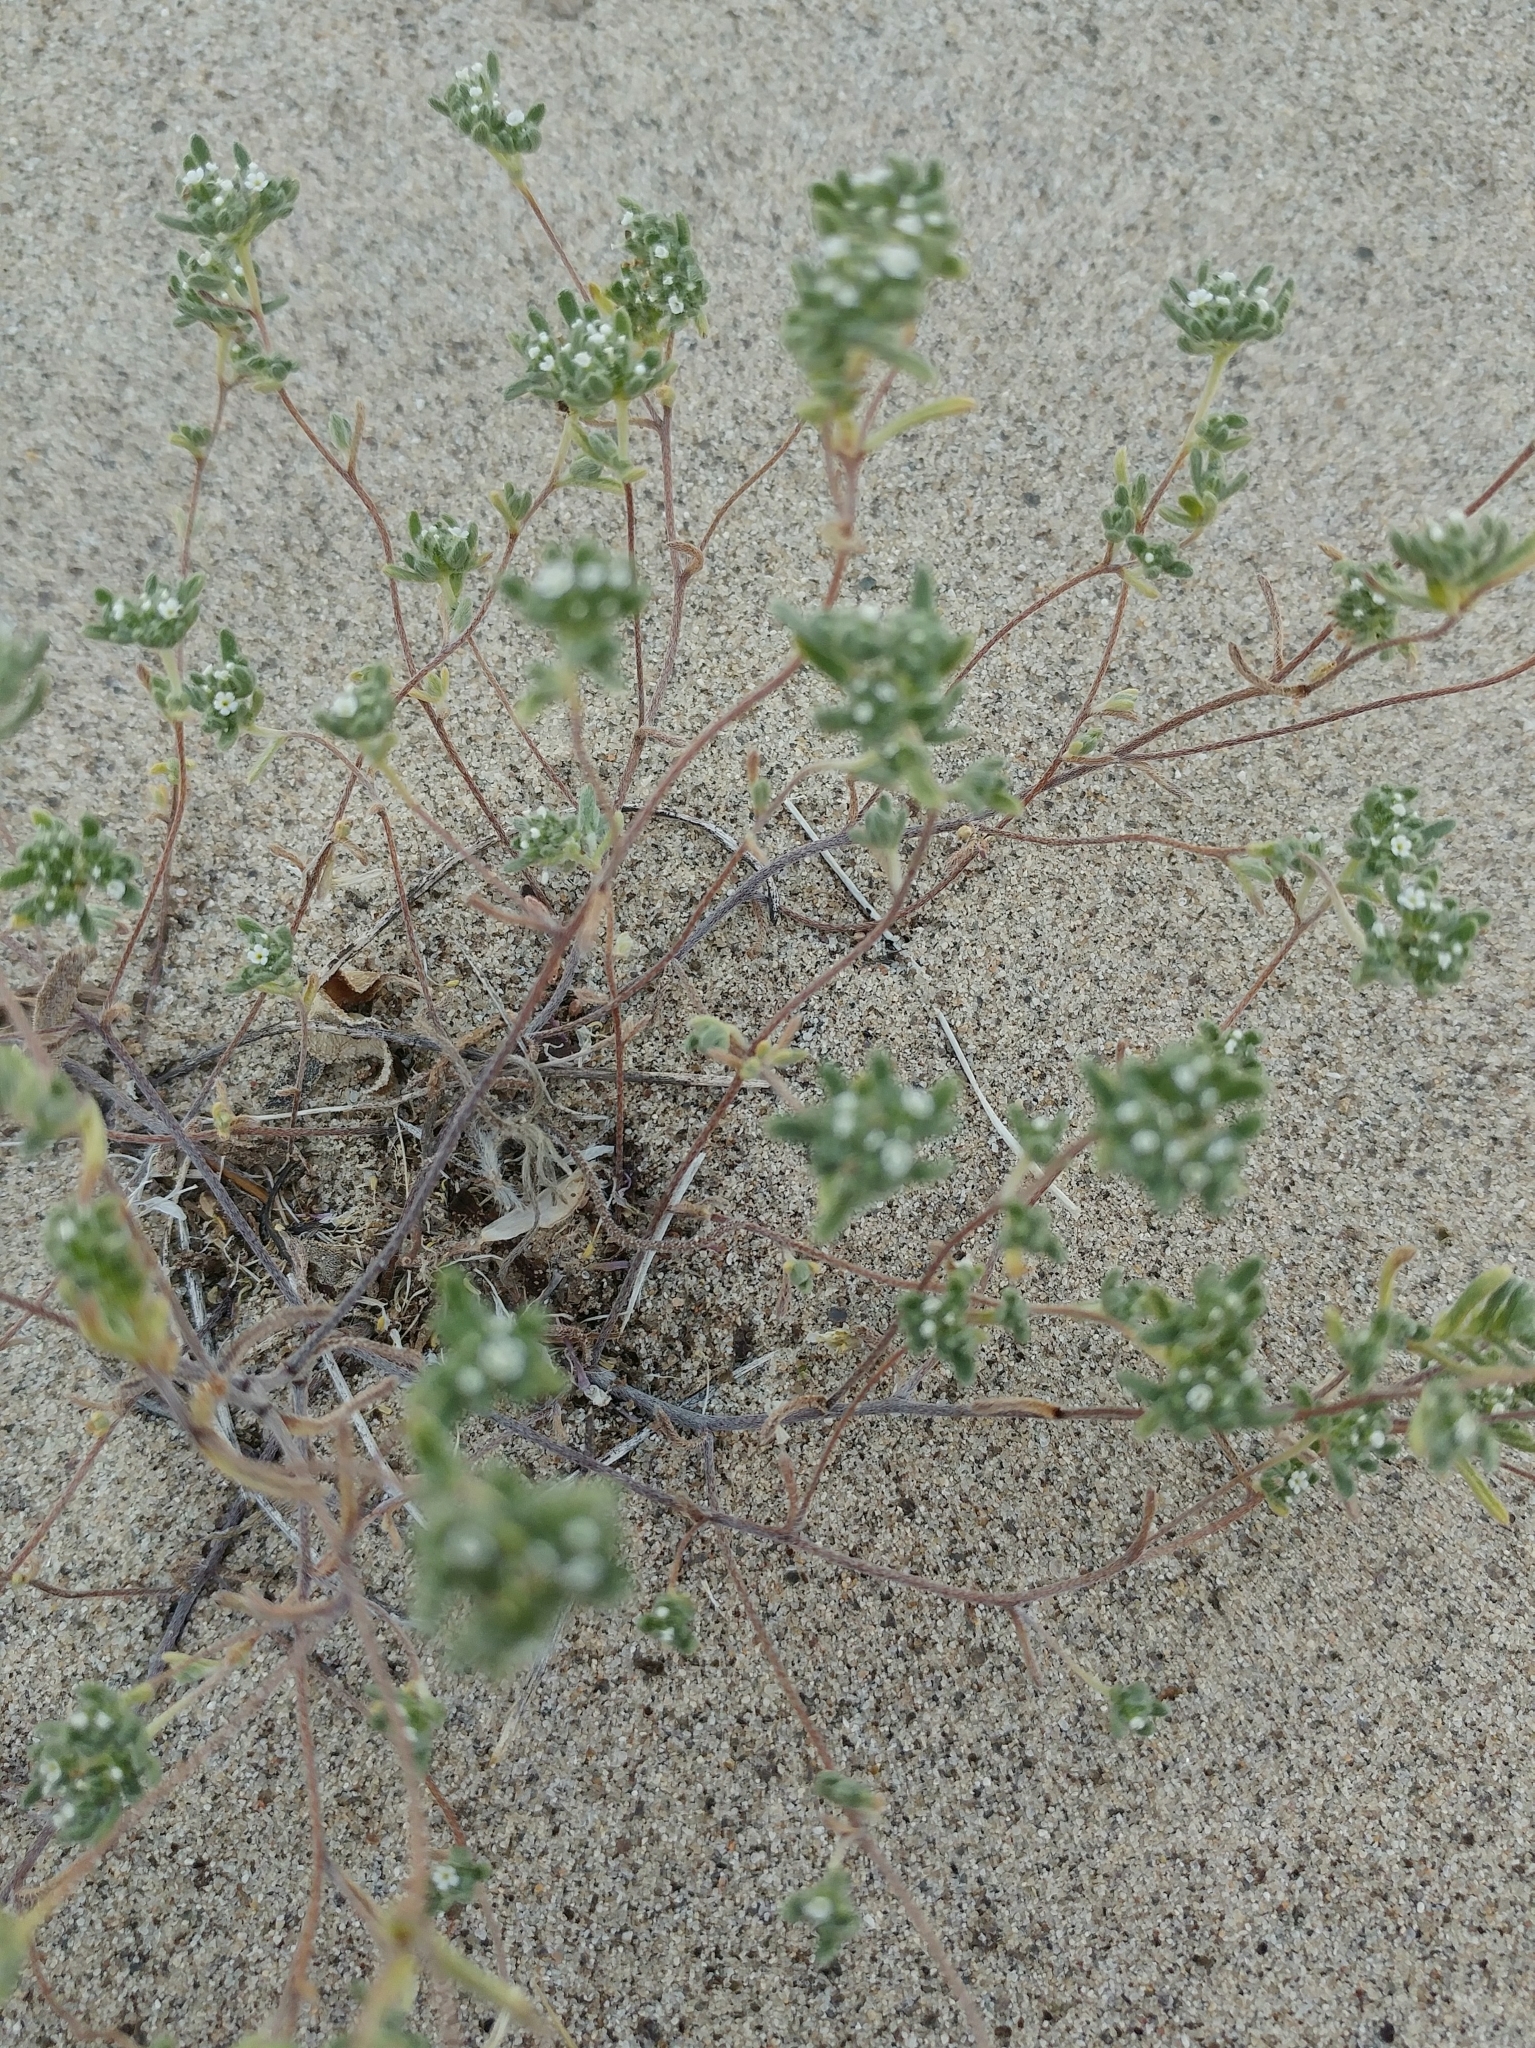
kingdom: Plantae
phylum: Tracheophyta
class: Magnoliopsida
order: Boraginales
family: Boraginaceae
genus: Eremocarya
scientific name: Eremocarya micrantha
